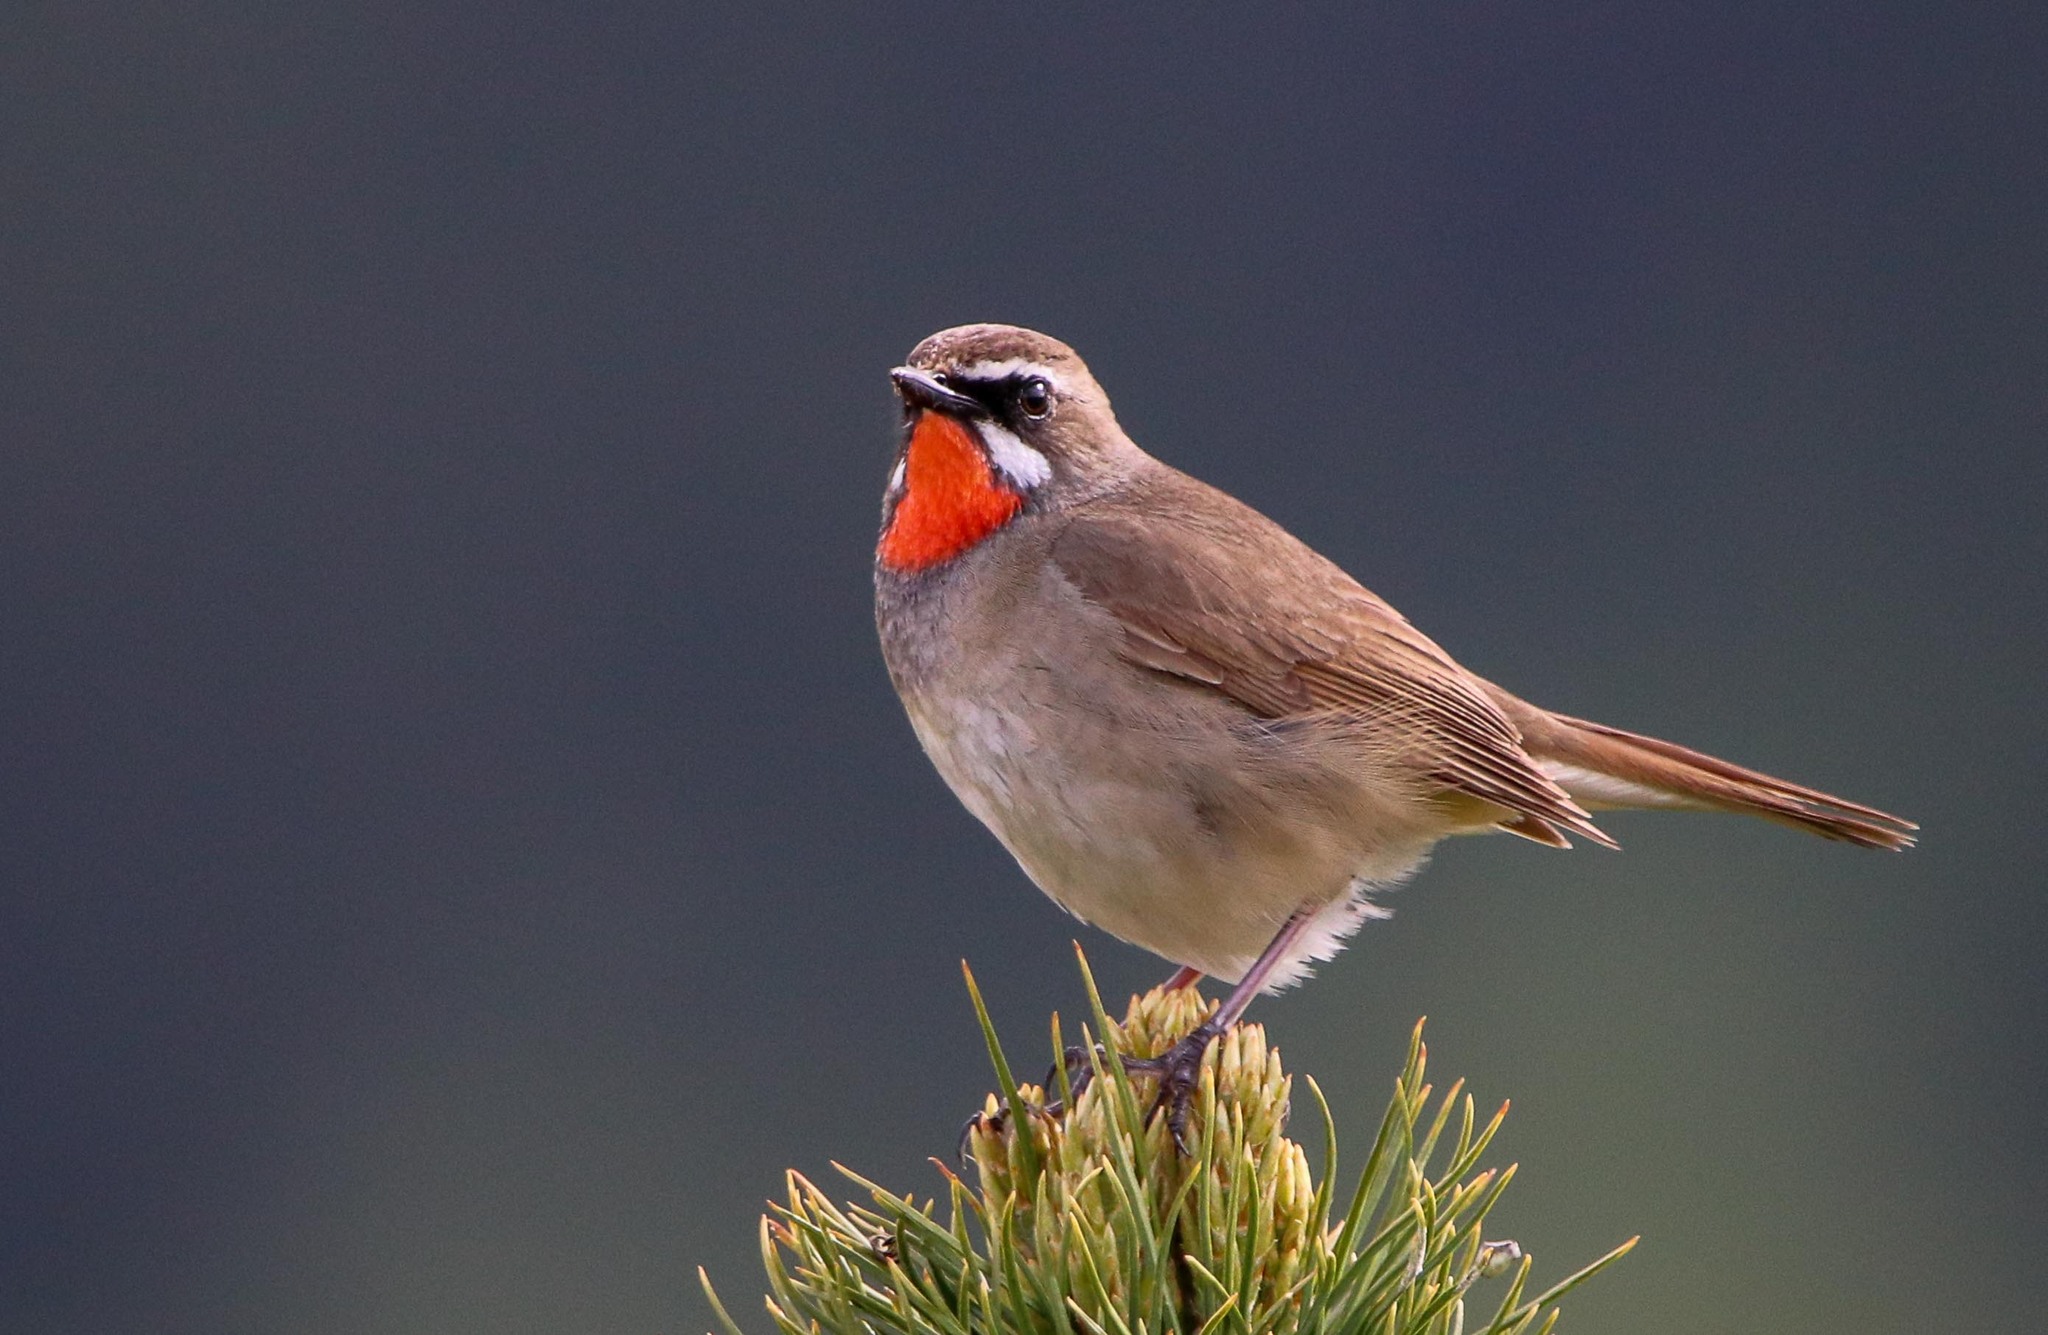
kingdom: Animalia
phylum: Chordata
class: Aves
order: Passeriformes
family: Muscicapidae
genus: Luscinia
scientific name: Luscinia calliope
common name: Siberian rubythroat
